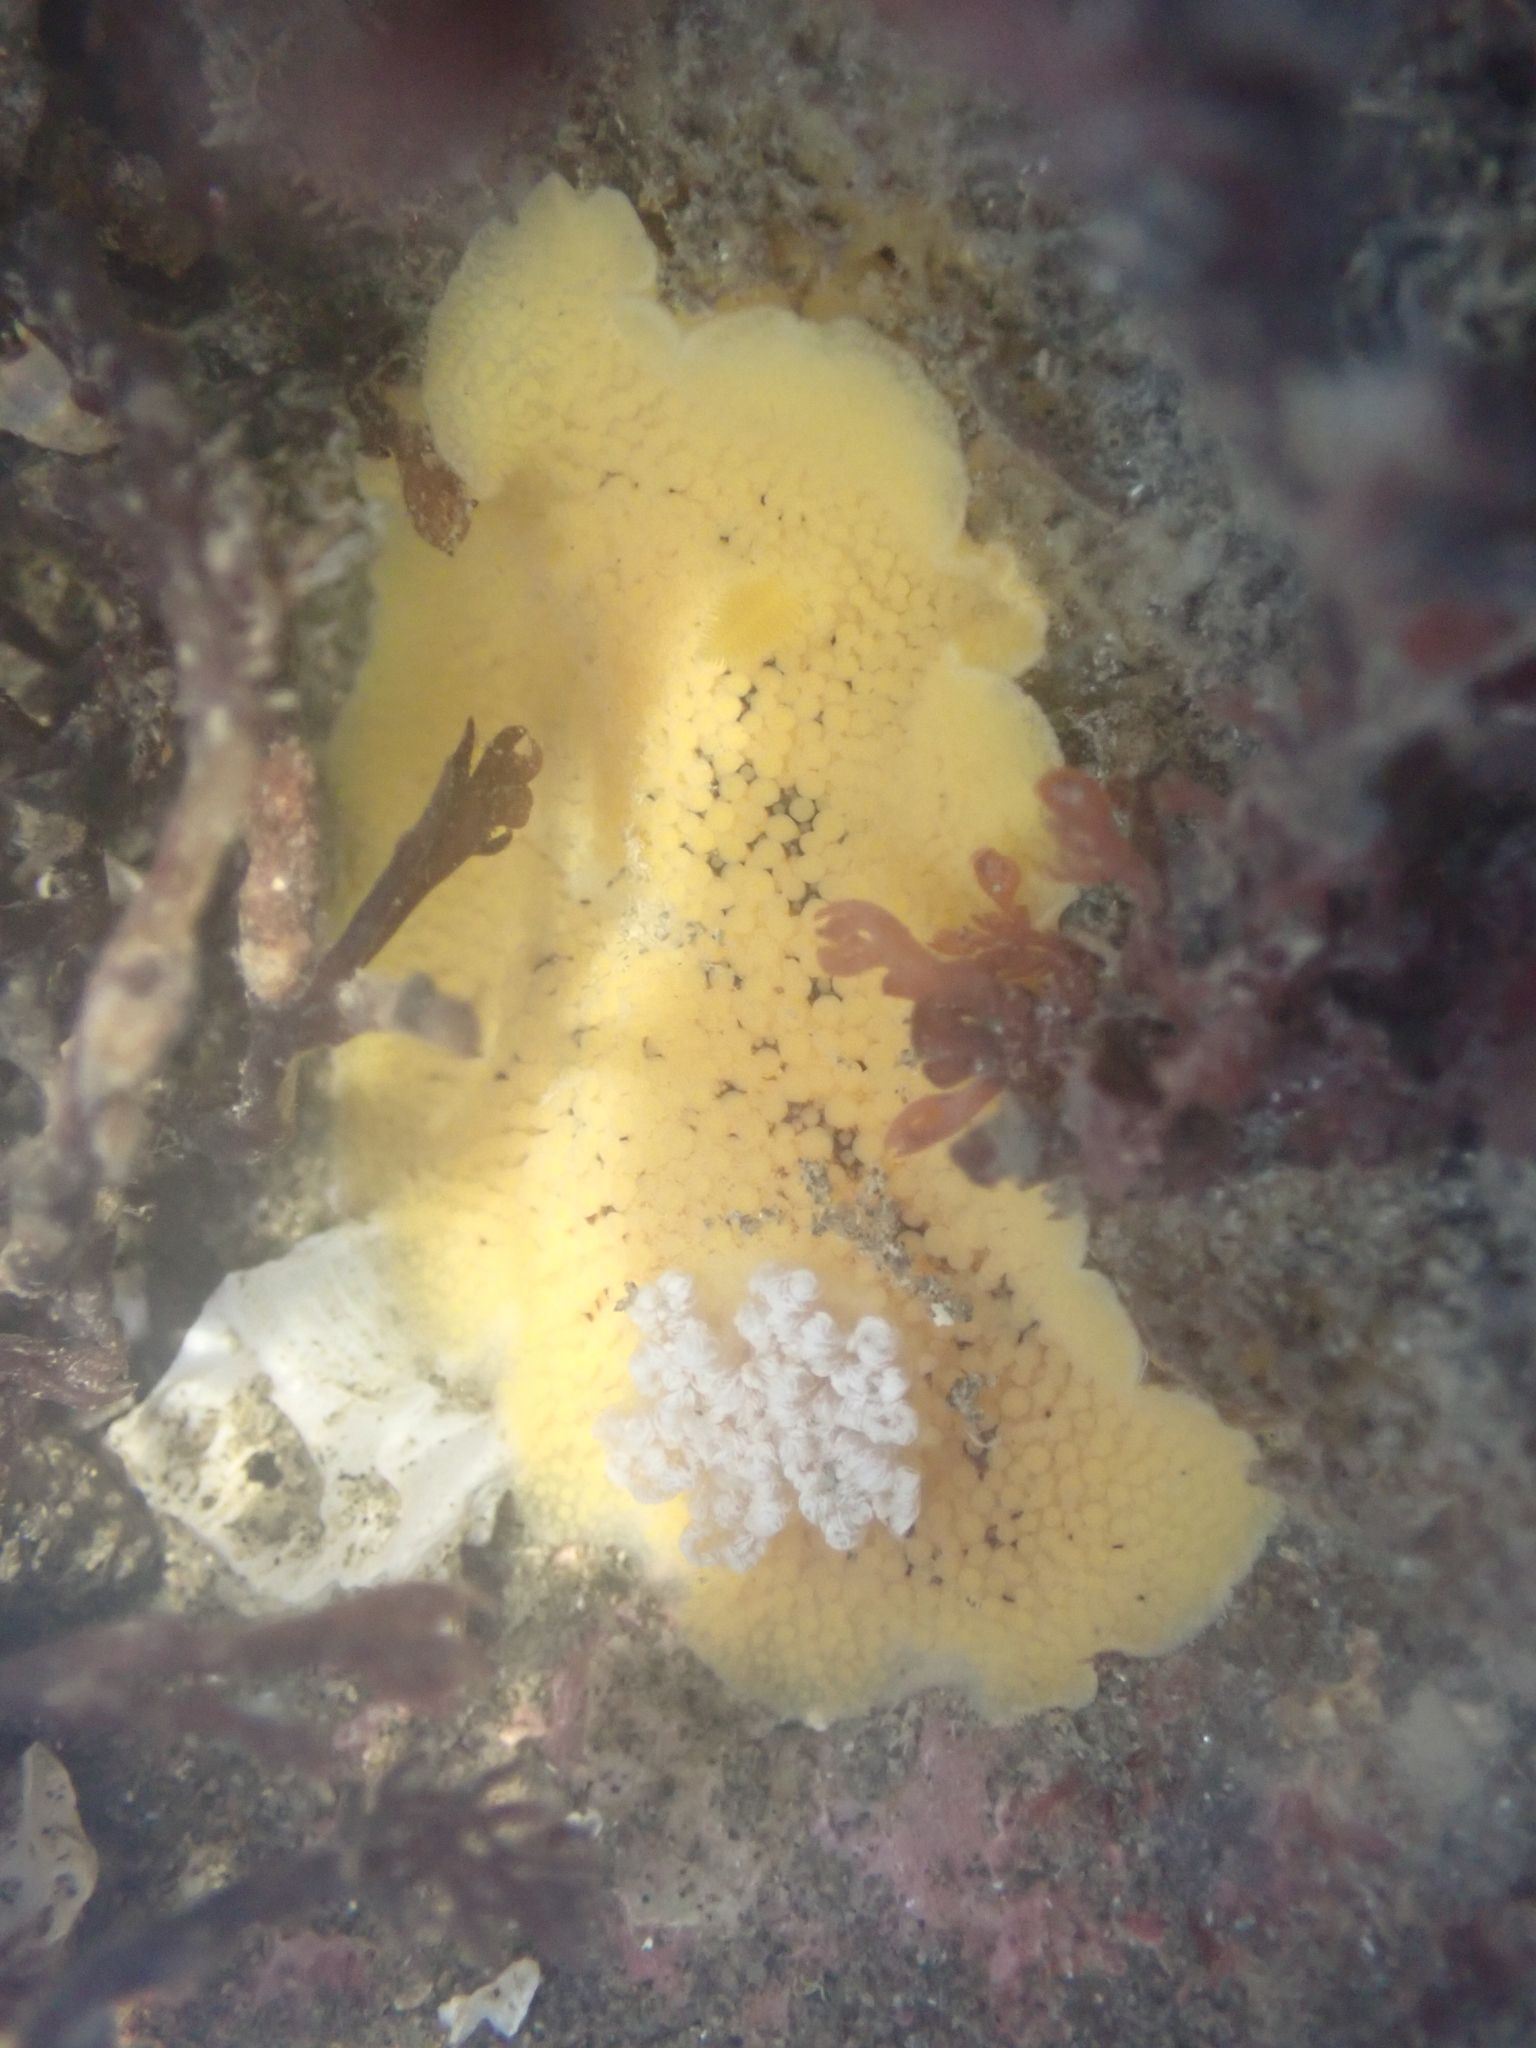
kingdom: Animalia
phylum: Mollusca
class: Gastropoda
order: Nudibranchia
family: Discodorididae
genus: Peltodoris
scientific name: Peltodoris nobilis
